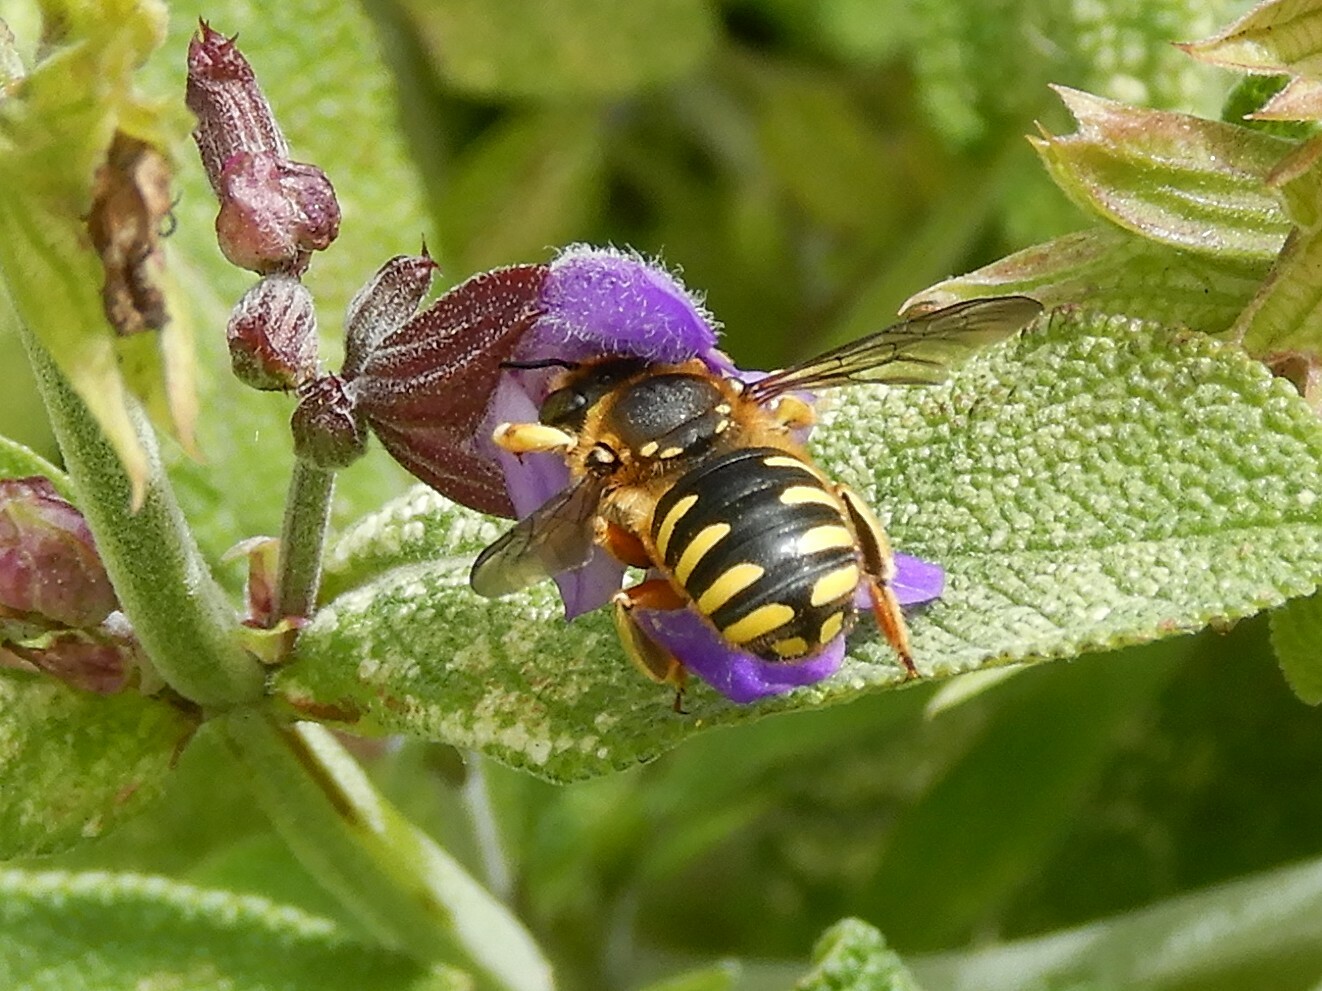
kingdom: Animalia
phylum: Arthropoda
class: Insecta
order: Hymenoptera
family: Megachilidae
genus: Anthidium
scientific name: Anthidium manicatum
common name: Wool carder bee
